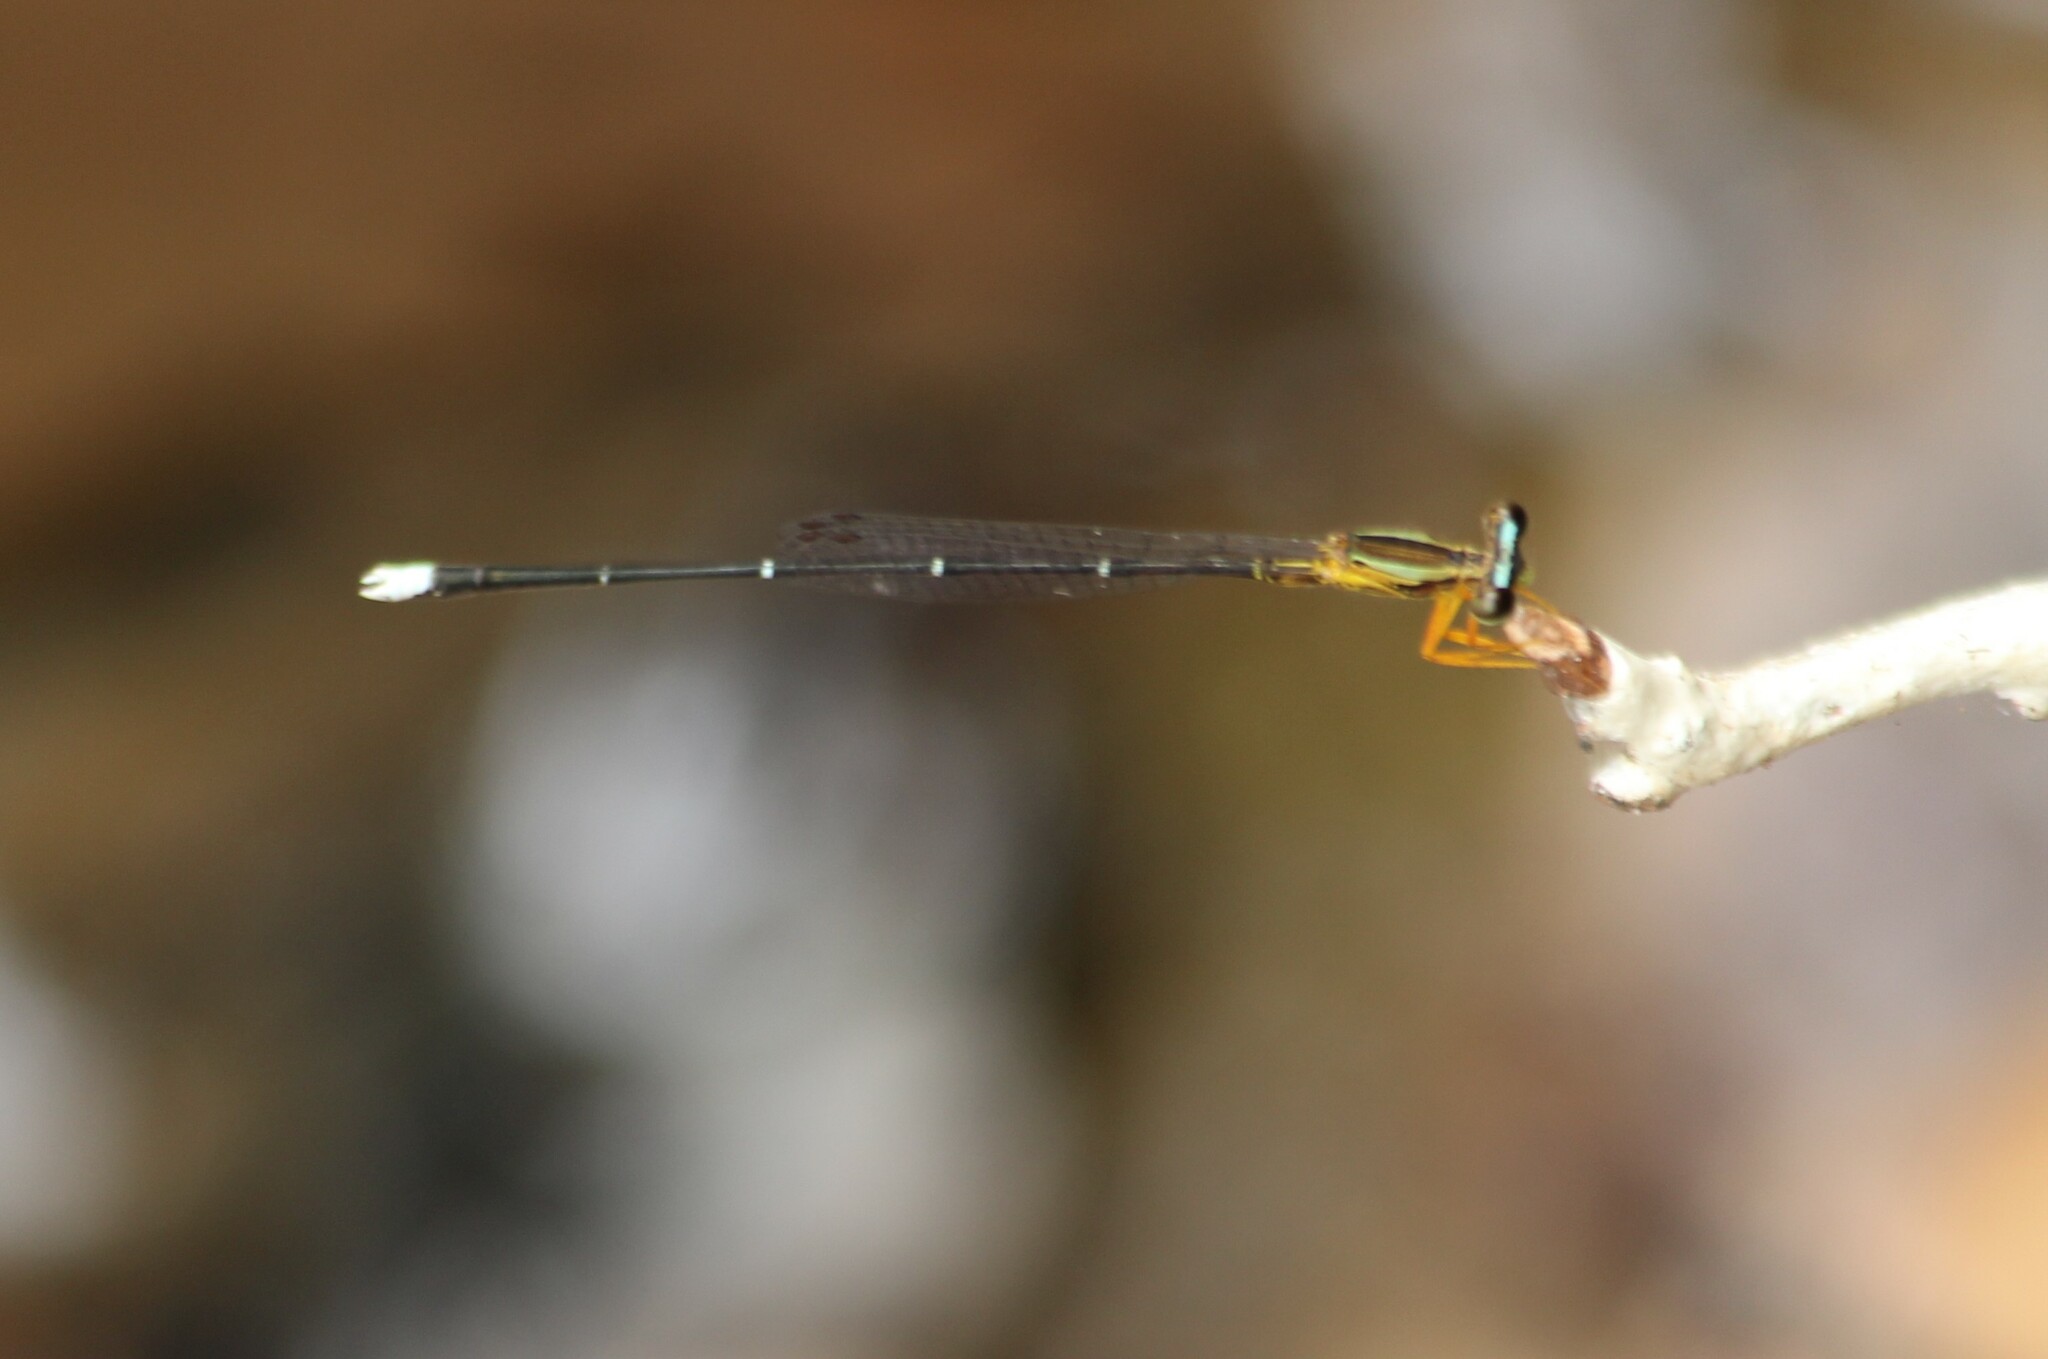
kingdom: Animalia
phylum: Arthropoda
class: Insecta
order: Odonata
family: Platycnemididae
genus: Copera
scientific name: Copera vittata
